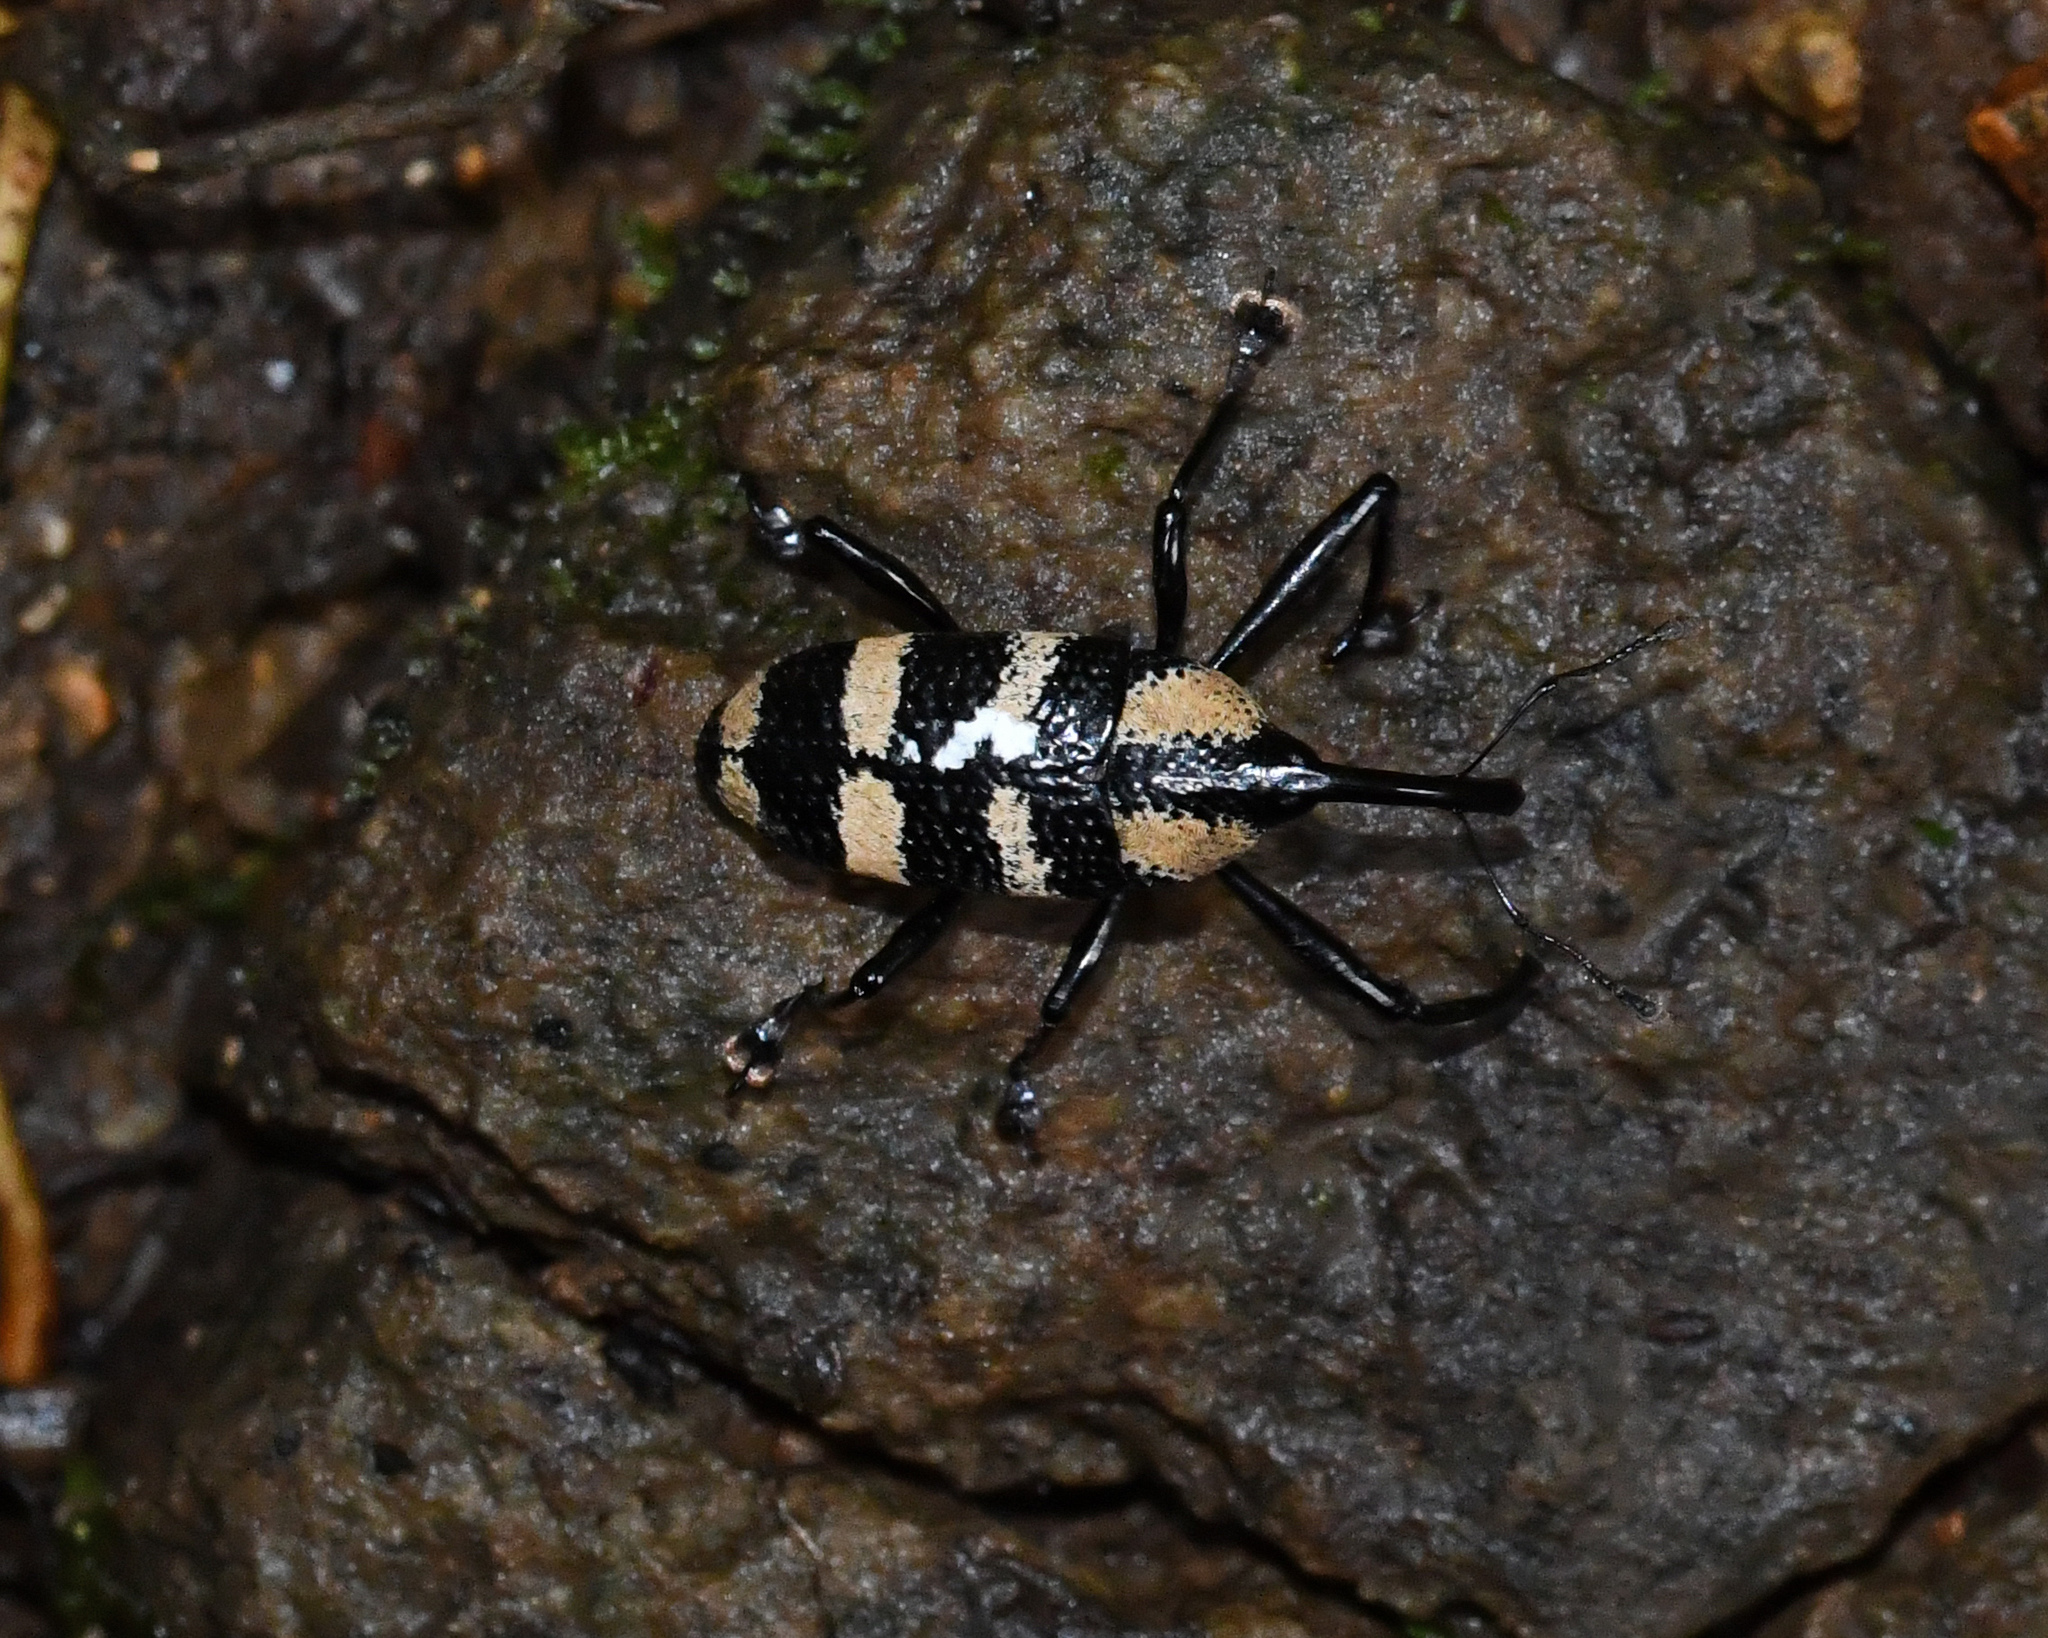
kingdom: Animalia
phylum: Arthropoda
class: Insecta
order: Coleoptera
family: Curculionidae
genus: Cholus
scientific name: Cholus zonatus
